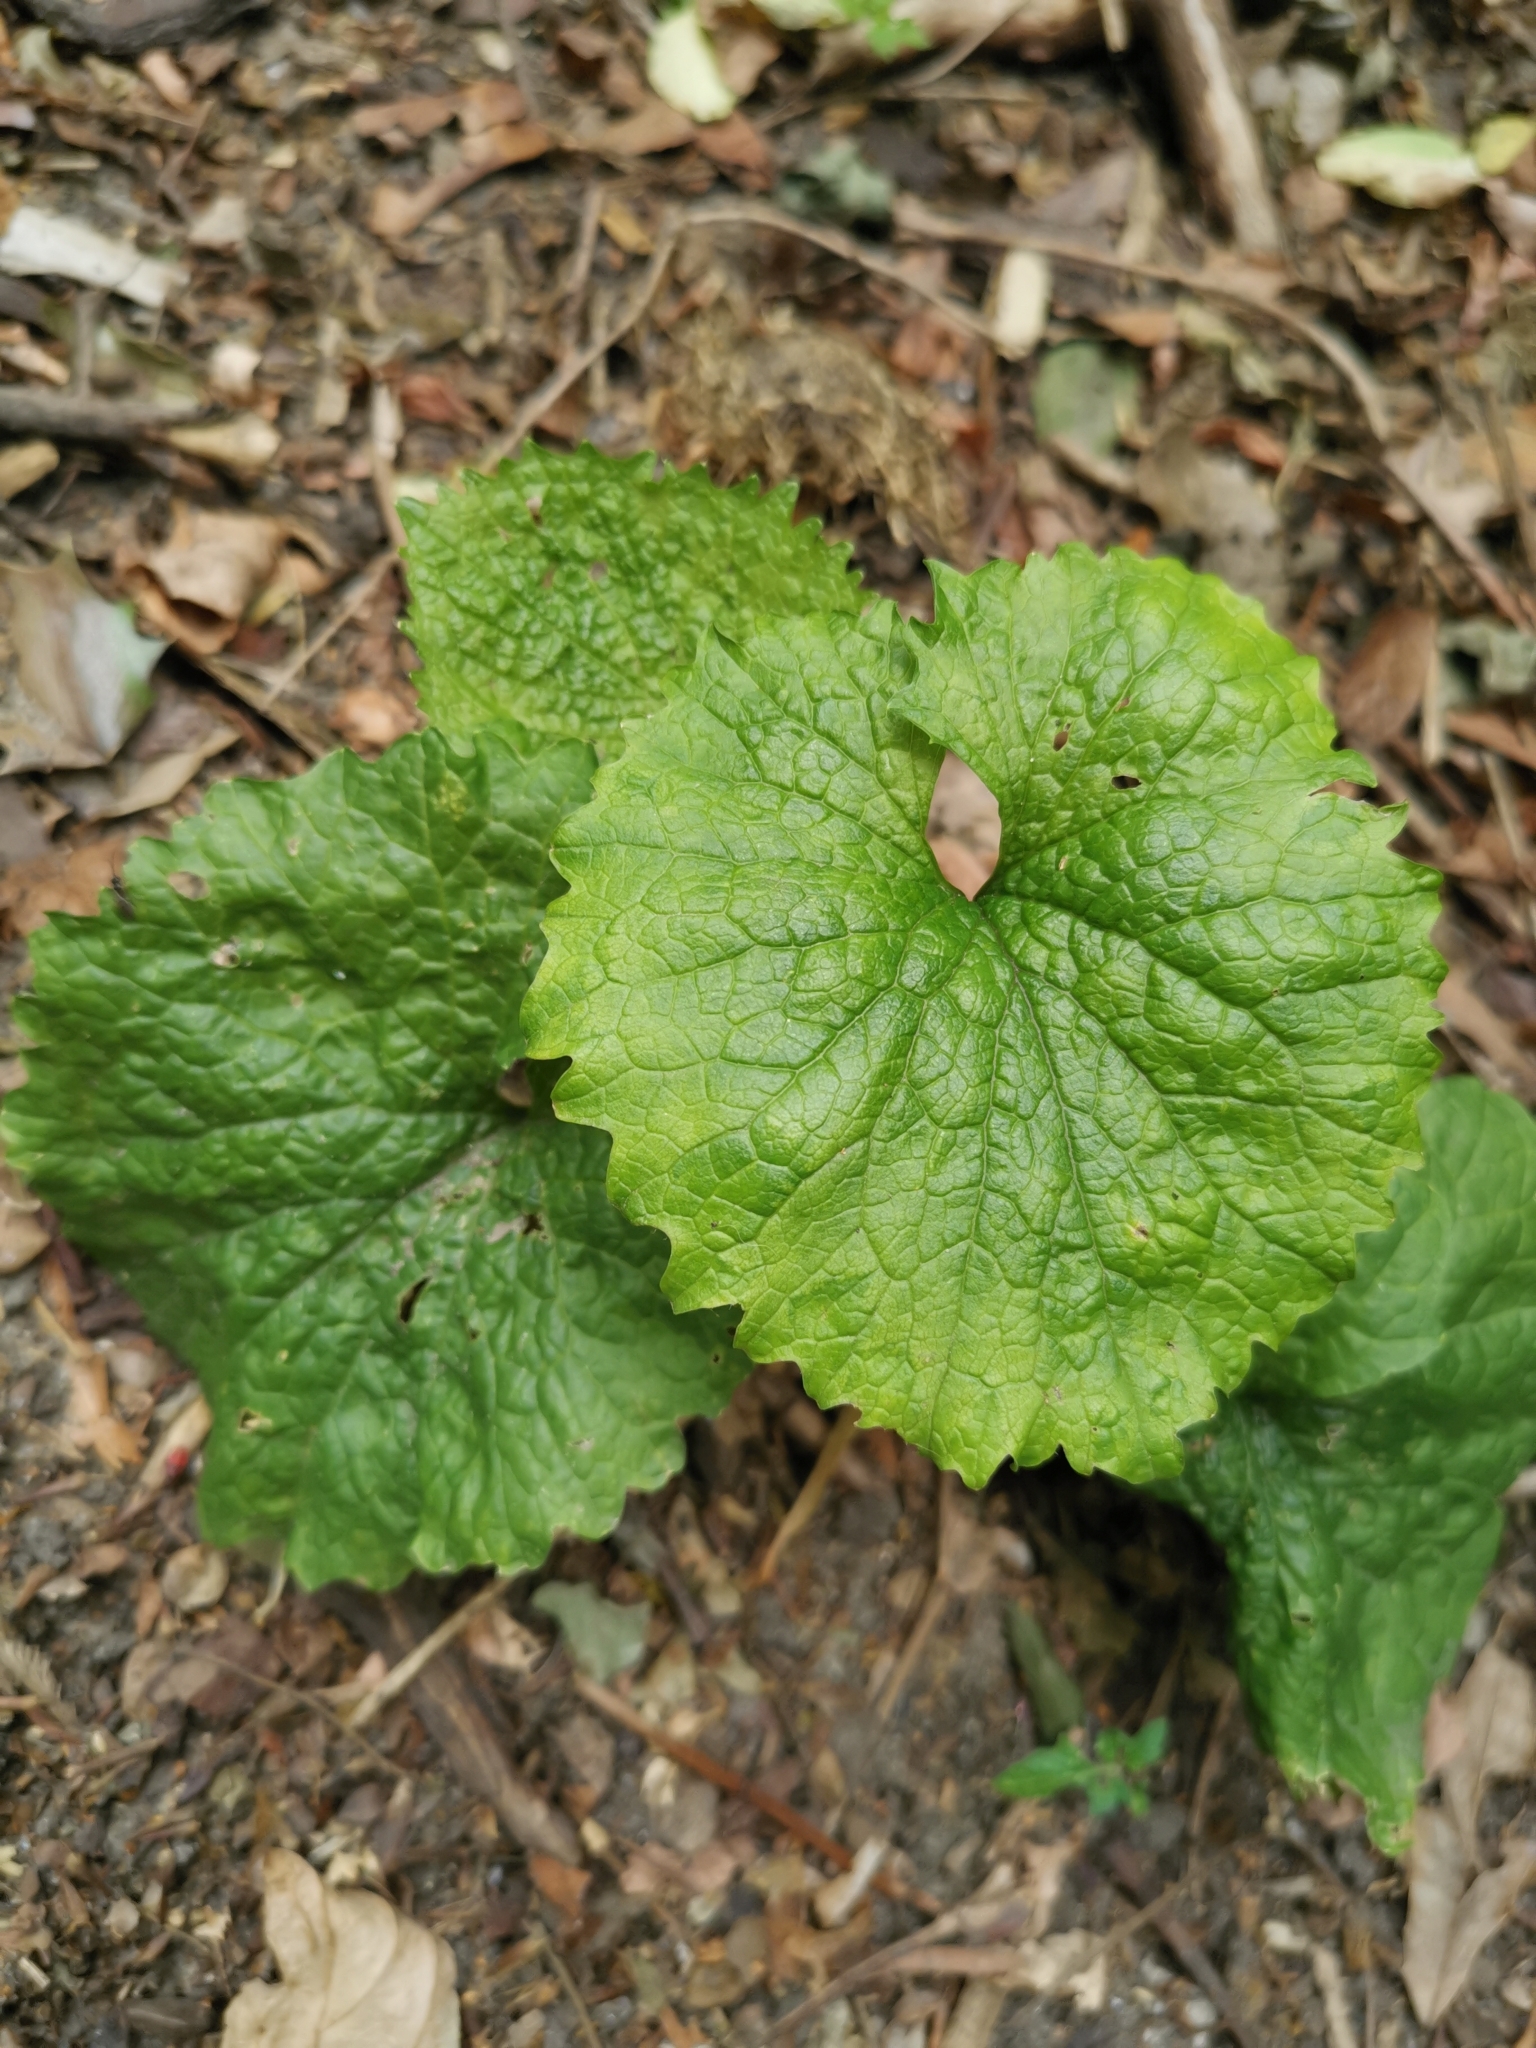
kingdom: Plantae
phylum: Tracheophyta
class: Magnoliopsida
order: Brassicales
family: Brassicaceae
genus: Alliaria
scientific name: Alliaria petiolata
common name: Garlic mustard
